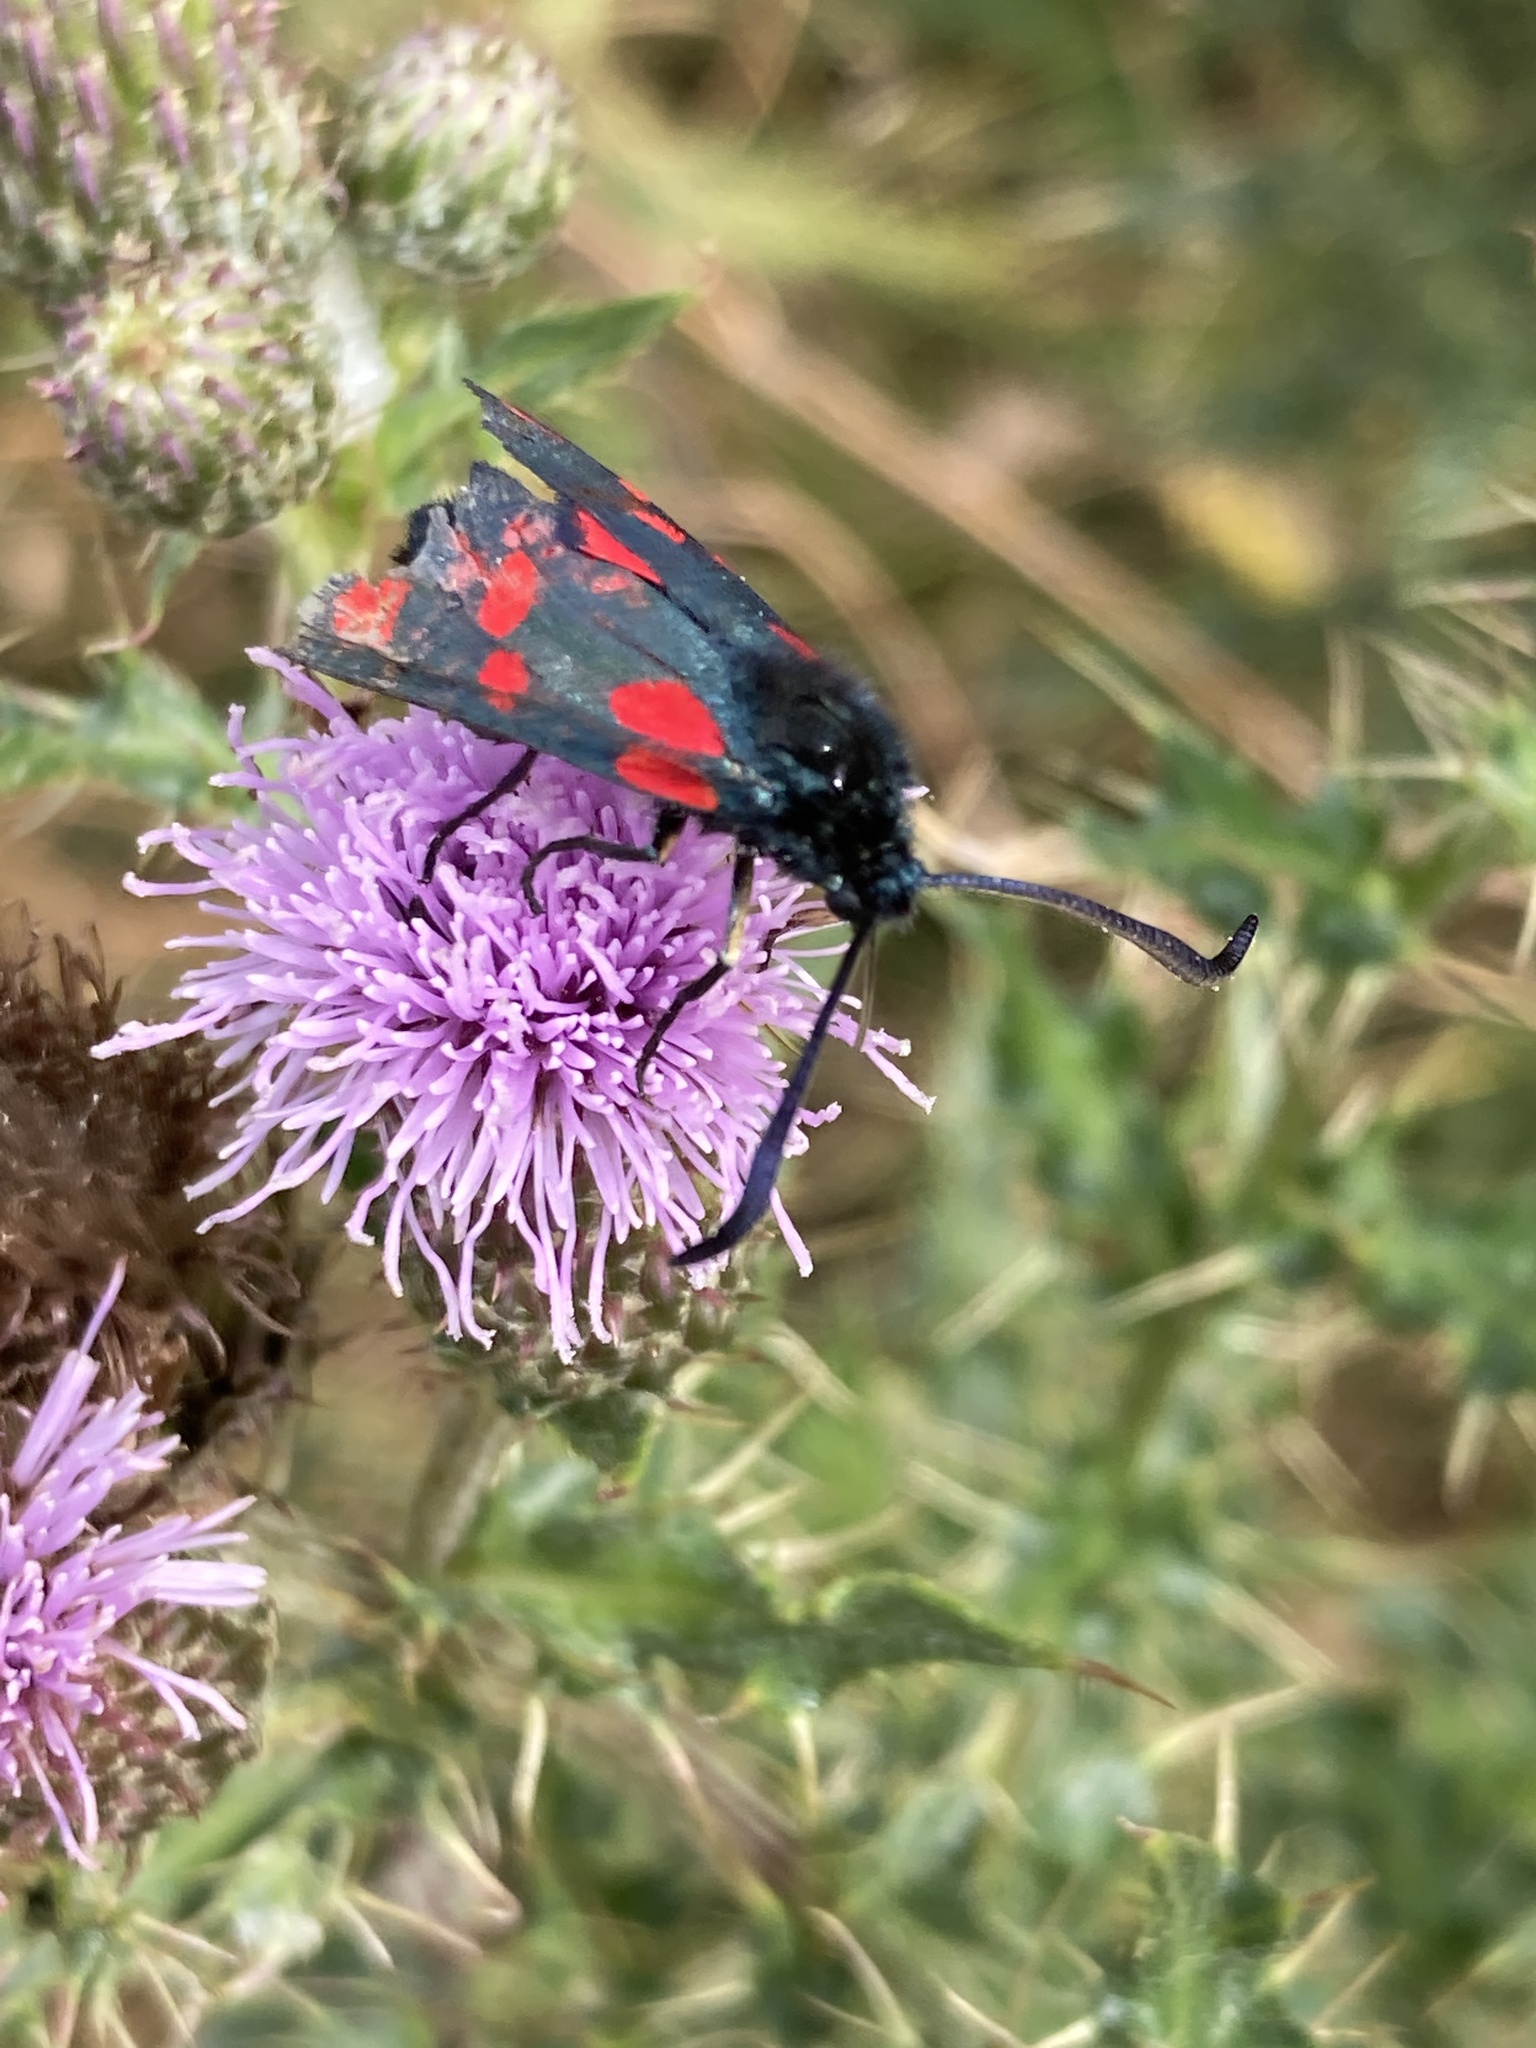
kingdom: Animalia
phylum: Arthropoda
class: Insecta
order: Lepidoptera
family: Zygaenidae
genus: Zygaena
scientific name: Zygaena filipendulae
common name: Six-spot burnet
